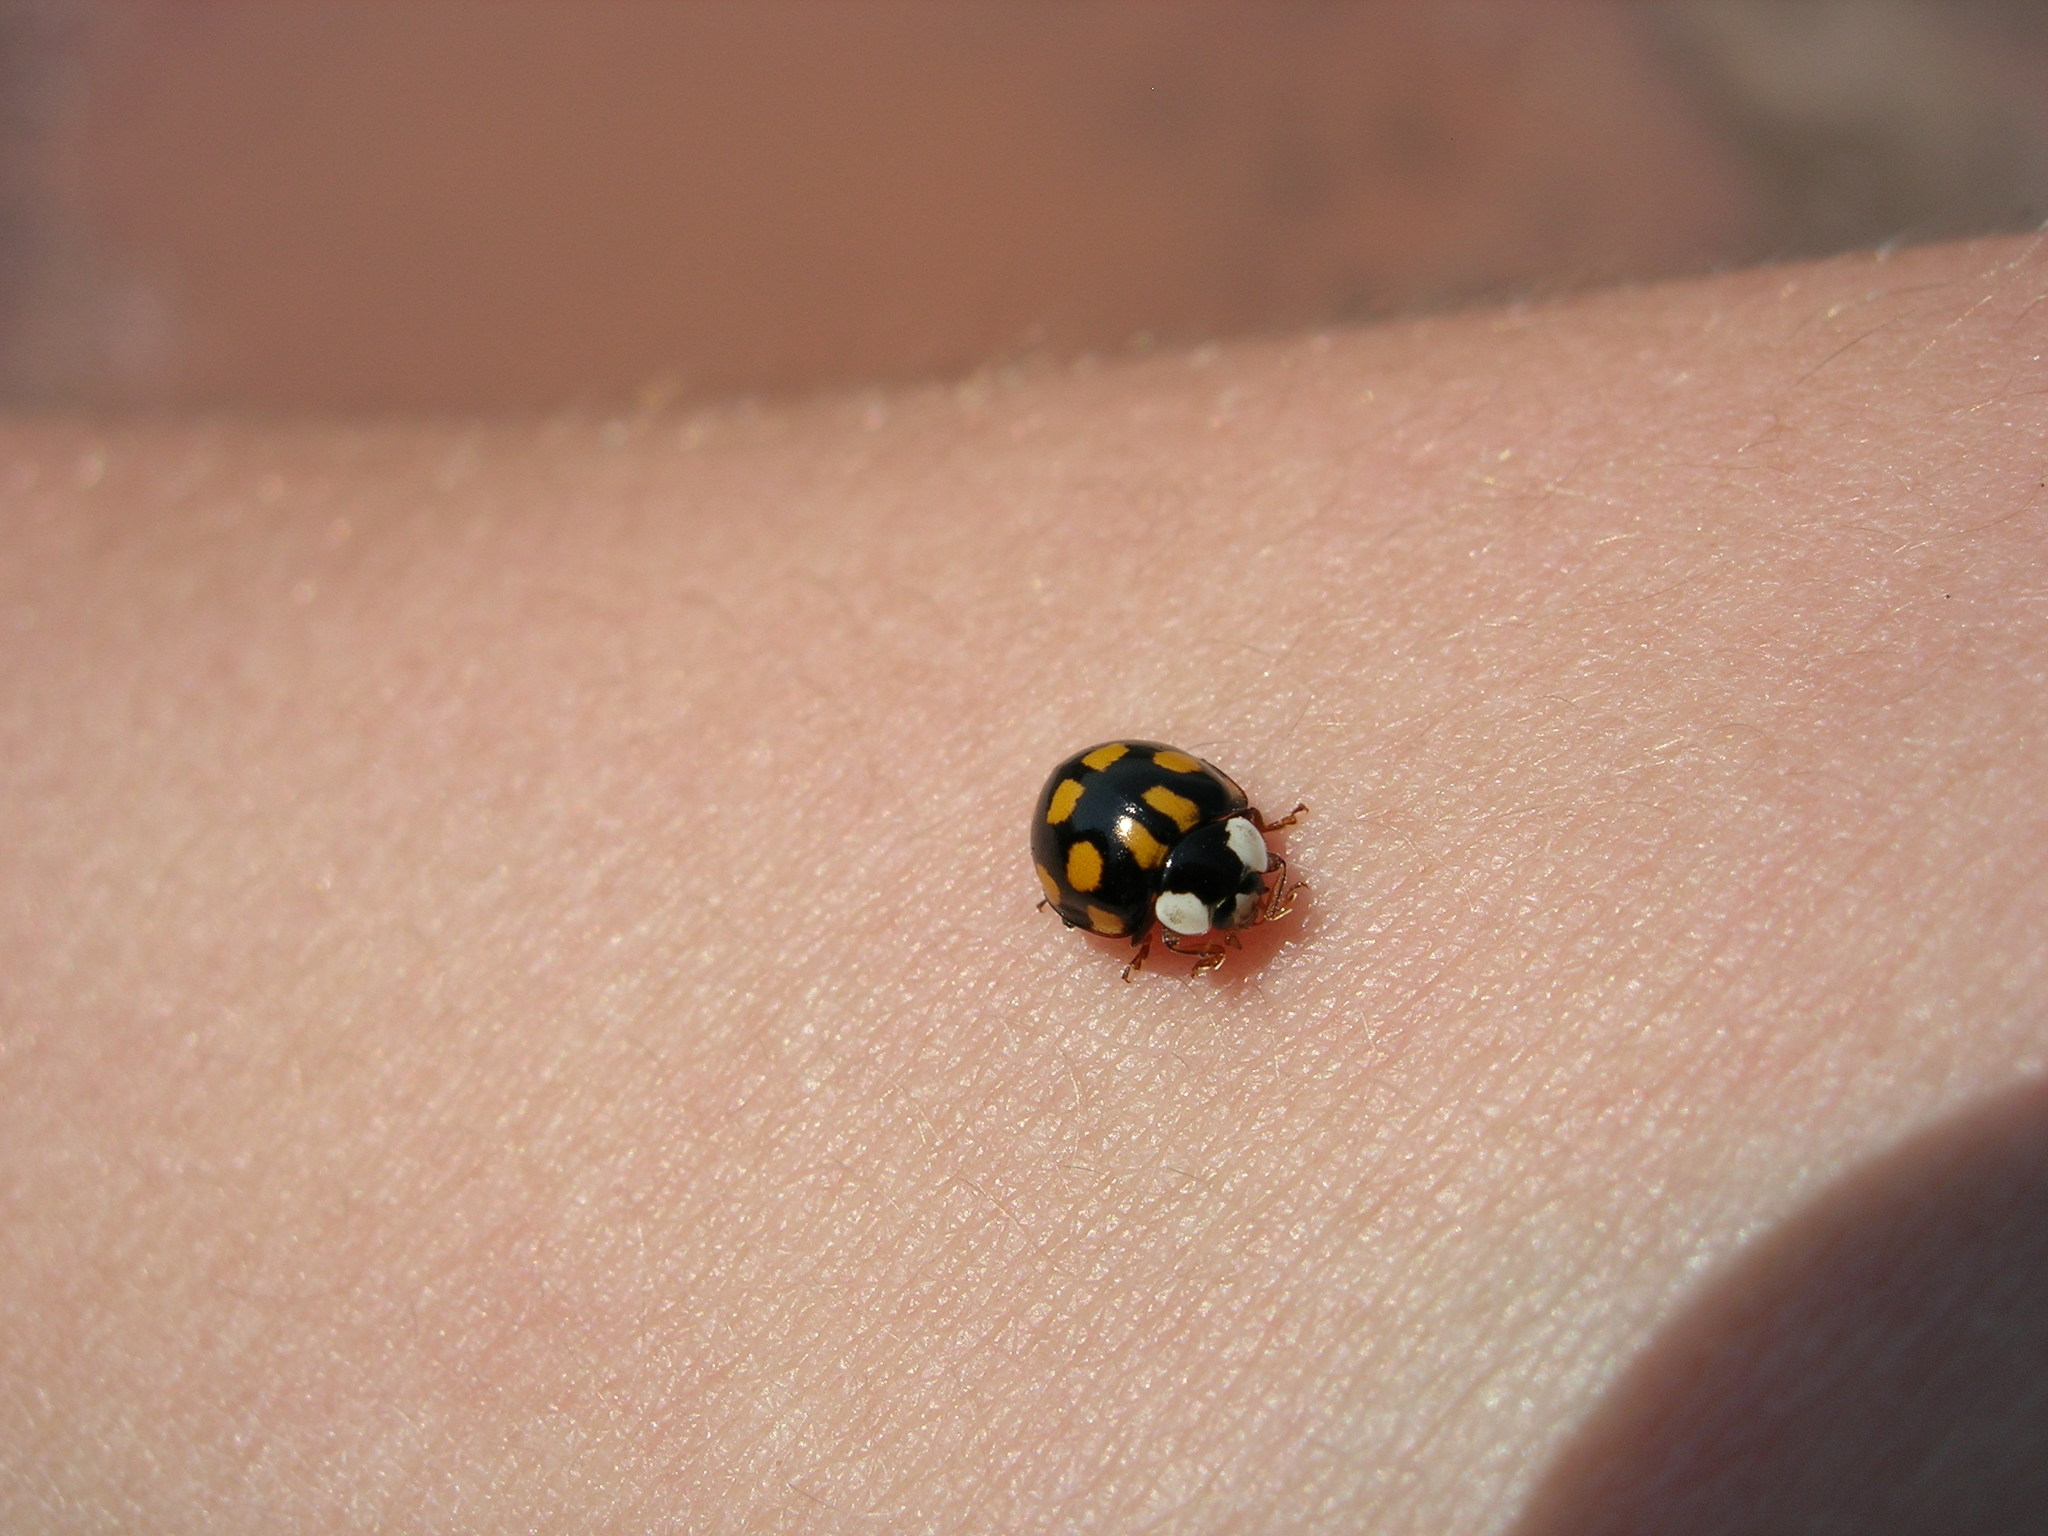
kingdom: Animalia
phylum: Arthropoda
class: Insecta
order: Coleoptera
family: Coccinellidae
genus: Harmonia
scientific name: Harmonia axyridis
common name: Harlequin ladybird
